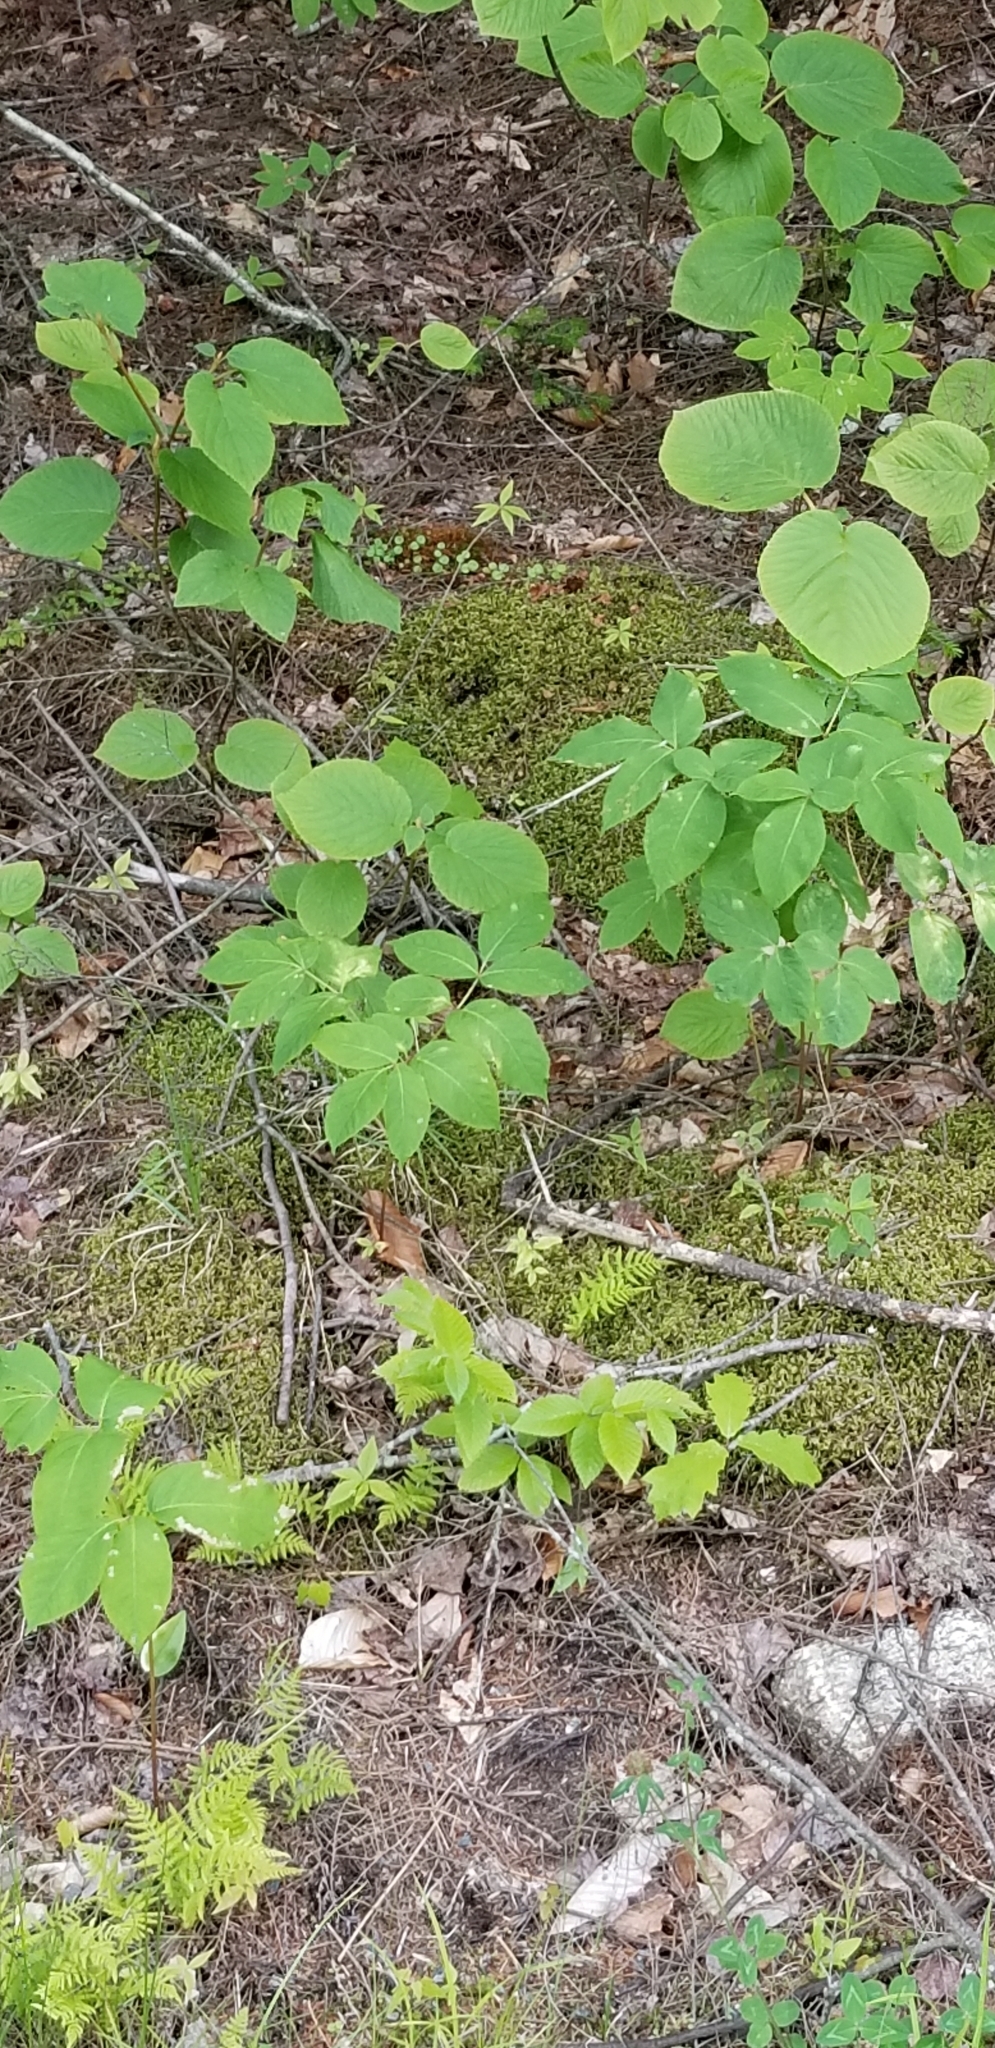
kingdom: Plantae
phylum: Tracheophyta
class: Magnoliopsida
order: Apiales
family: Araliaceae
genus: Aralia
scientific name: Aralia nudicaulis
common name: Wild sarsaparilla
